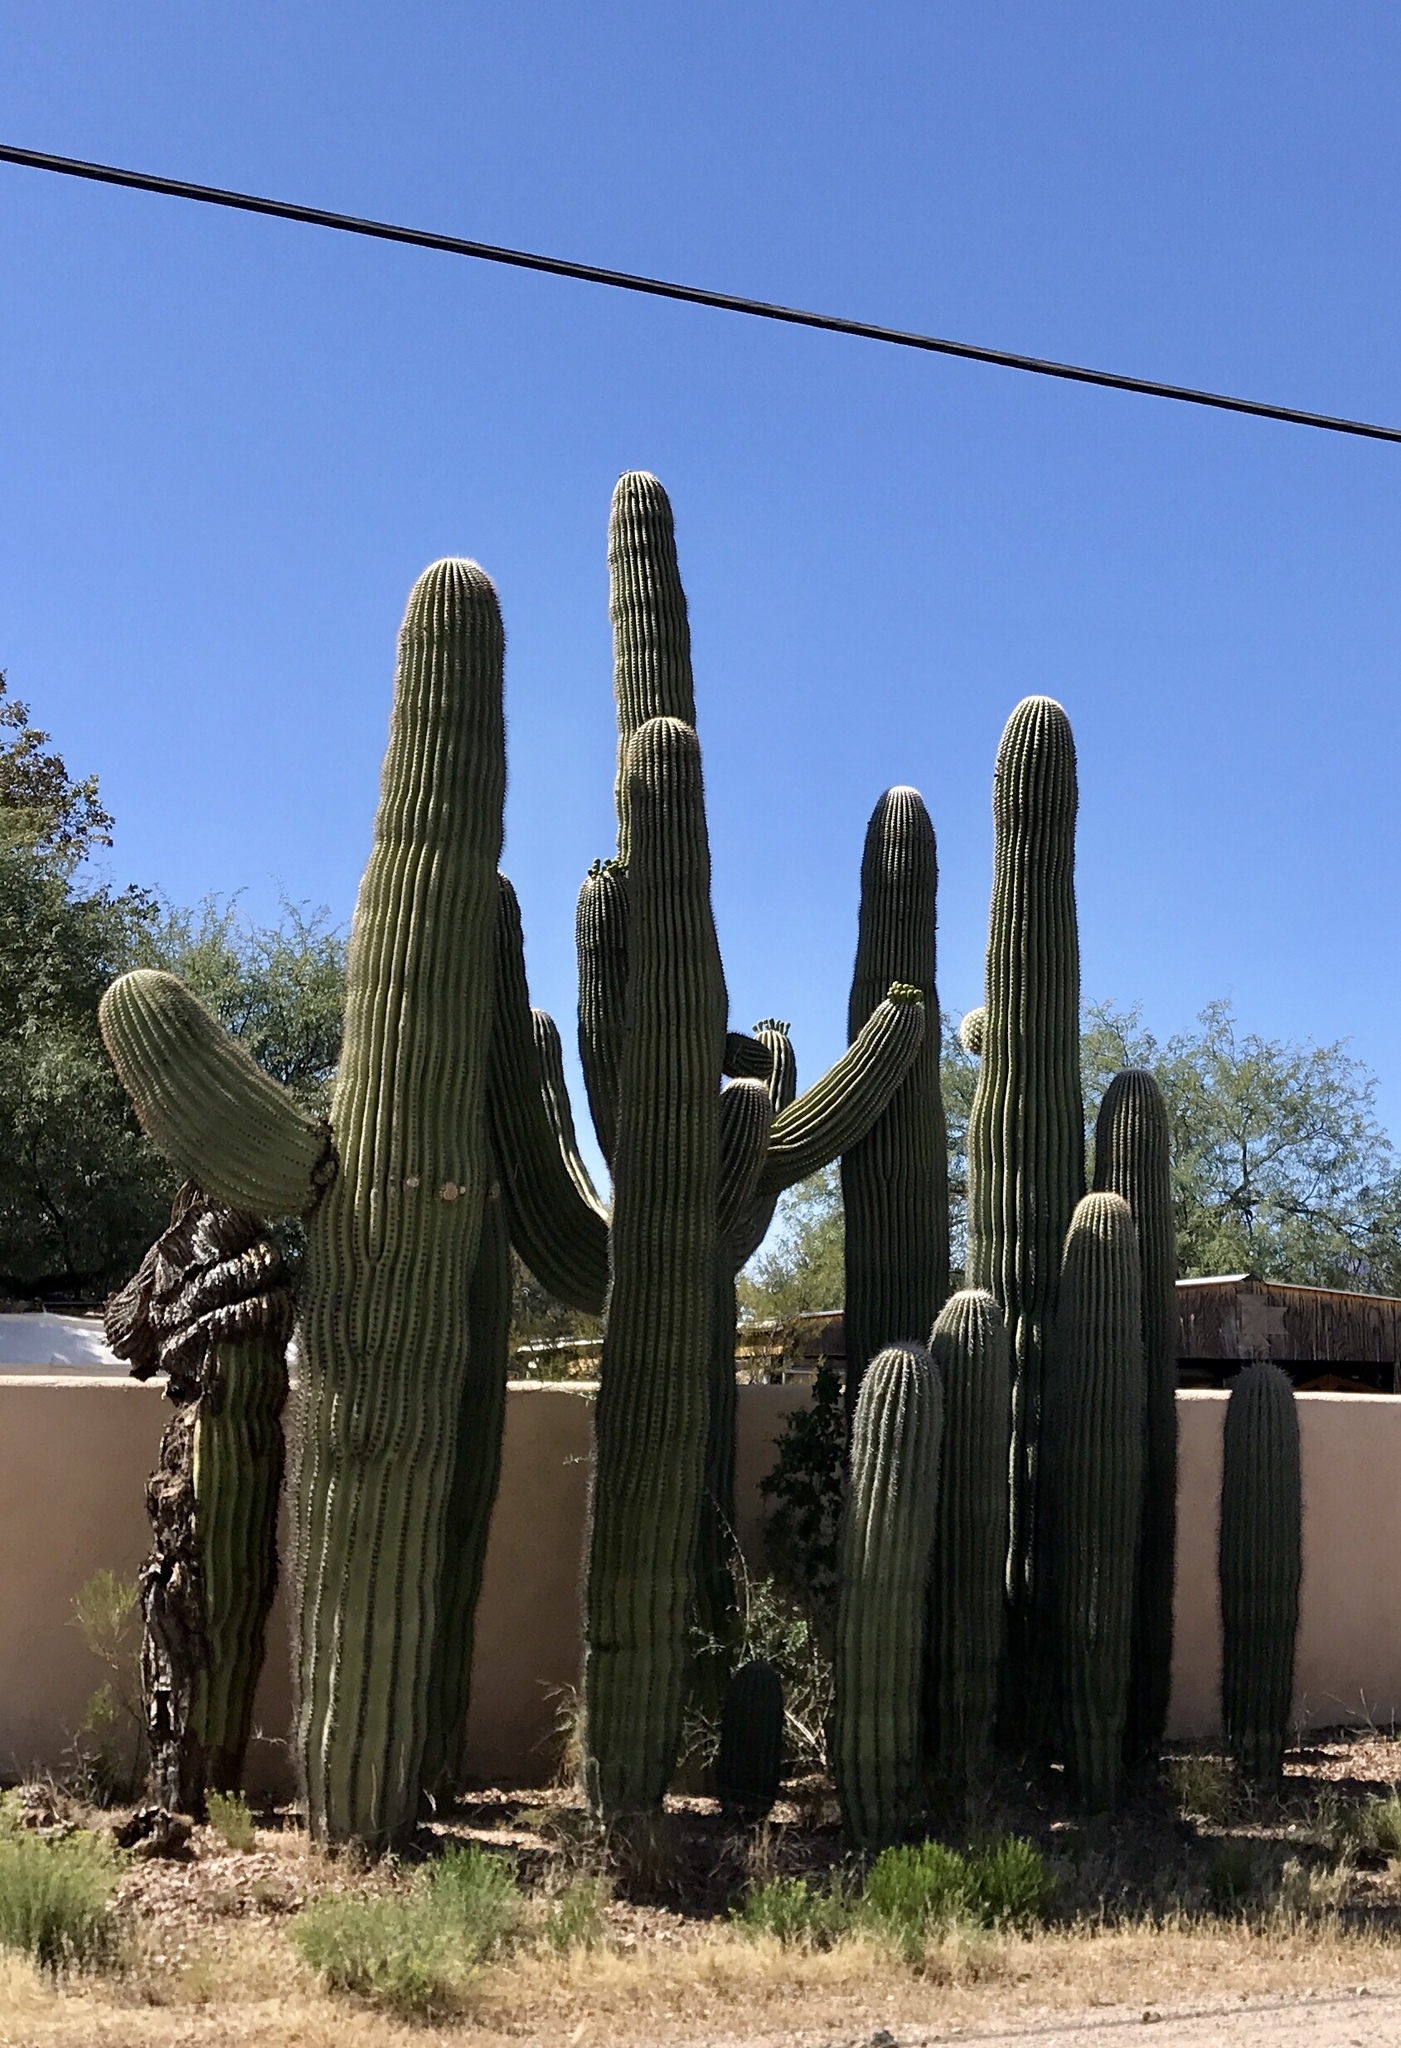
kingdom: Plantae
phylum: Tracheophyta
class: Magnoliopsida
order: Caryophyllales
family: Cactaceae
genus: Carnegiea
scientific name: Carnegiea gigantea
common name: Saguaro
